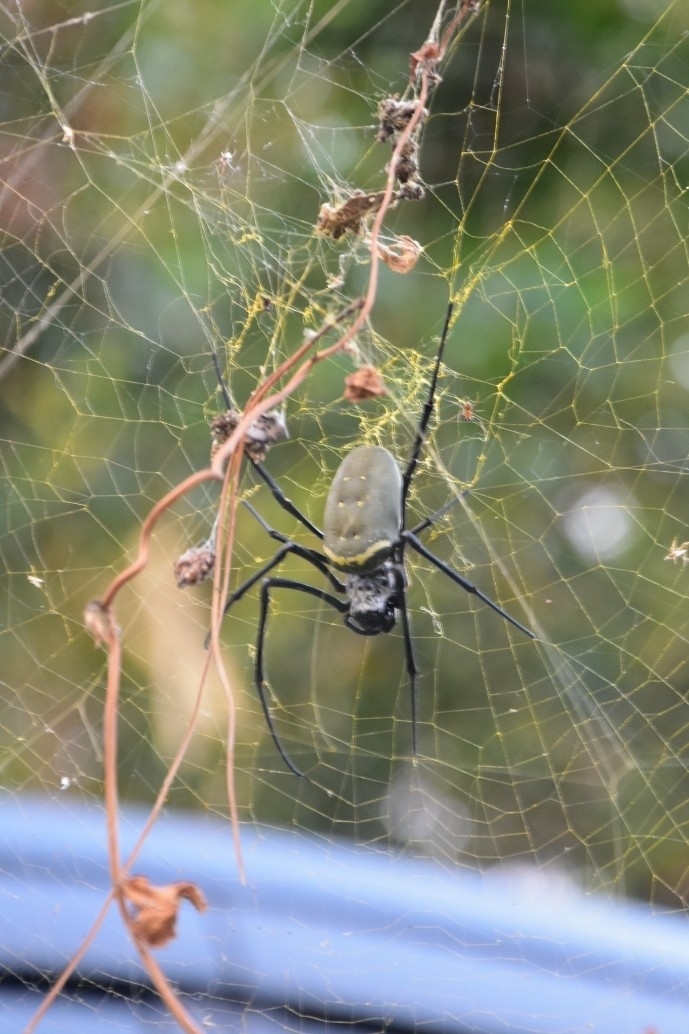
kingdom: Animalia
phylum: Arthropoda
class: Arachnida
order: Araneae
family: Araneidae
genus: Nephila
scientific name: Nephila vitiana
